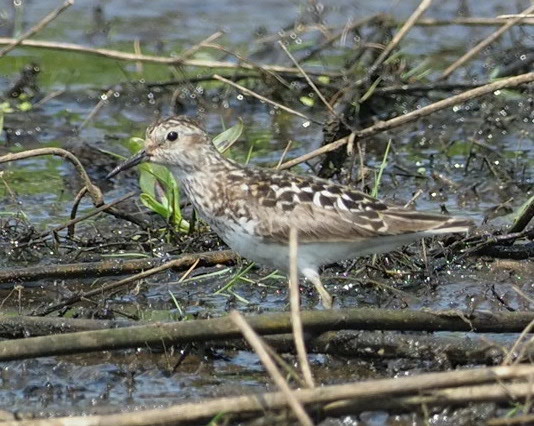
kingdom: Animalia
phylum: Chordata
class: Aves
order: Charadriiformes
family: Scolopacidae
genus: Calidris
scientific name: Calidris minutilla
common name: Least sandpiper
